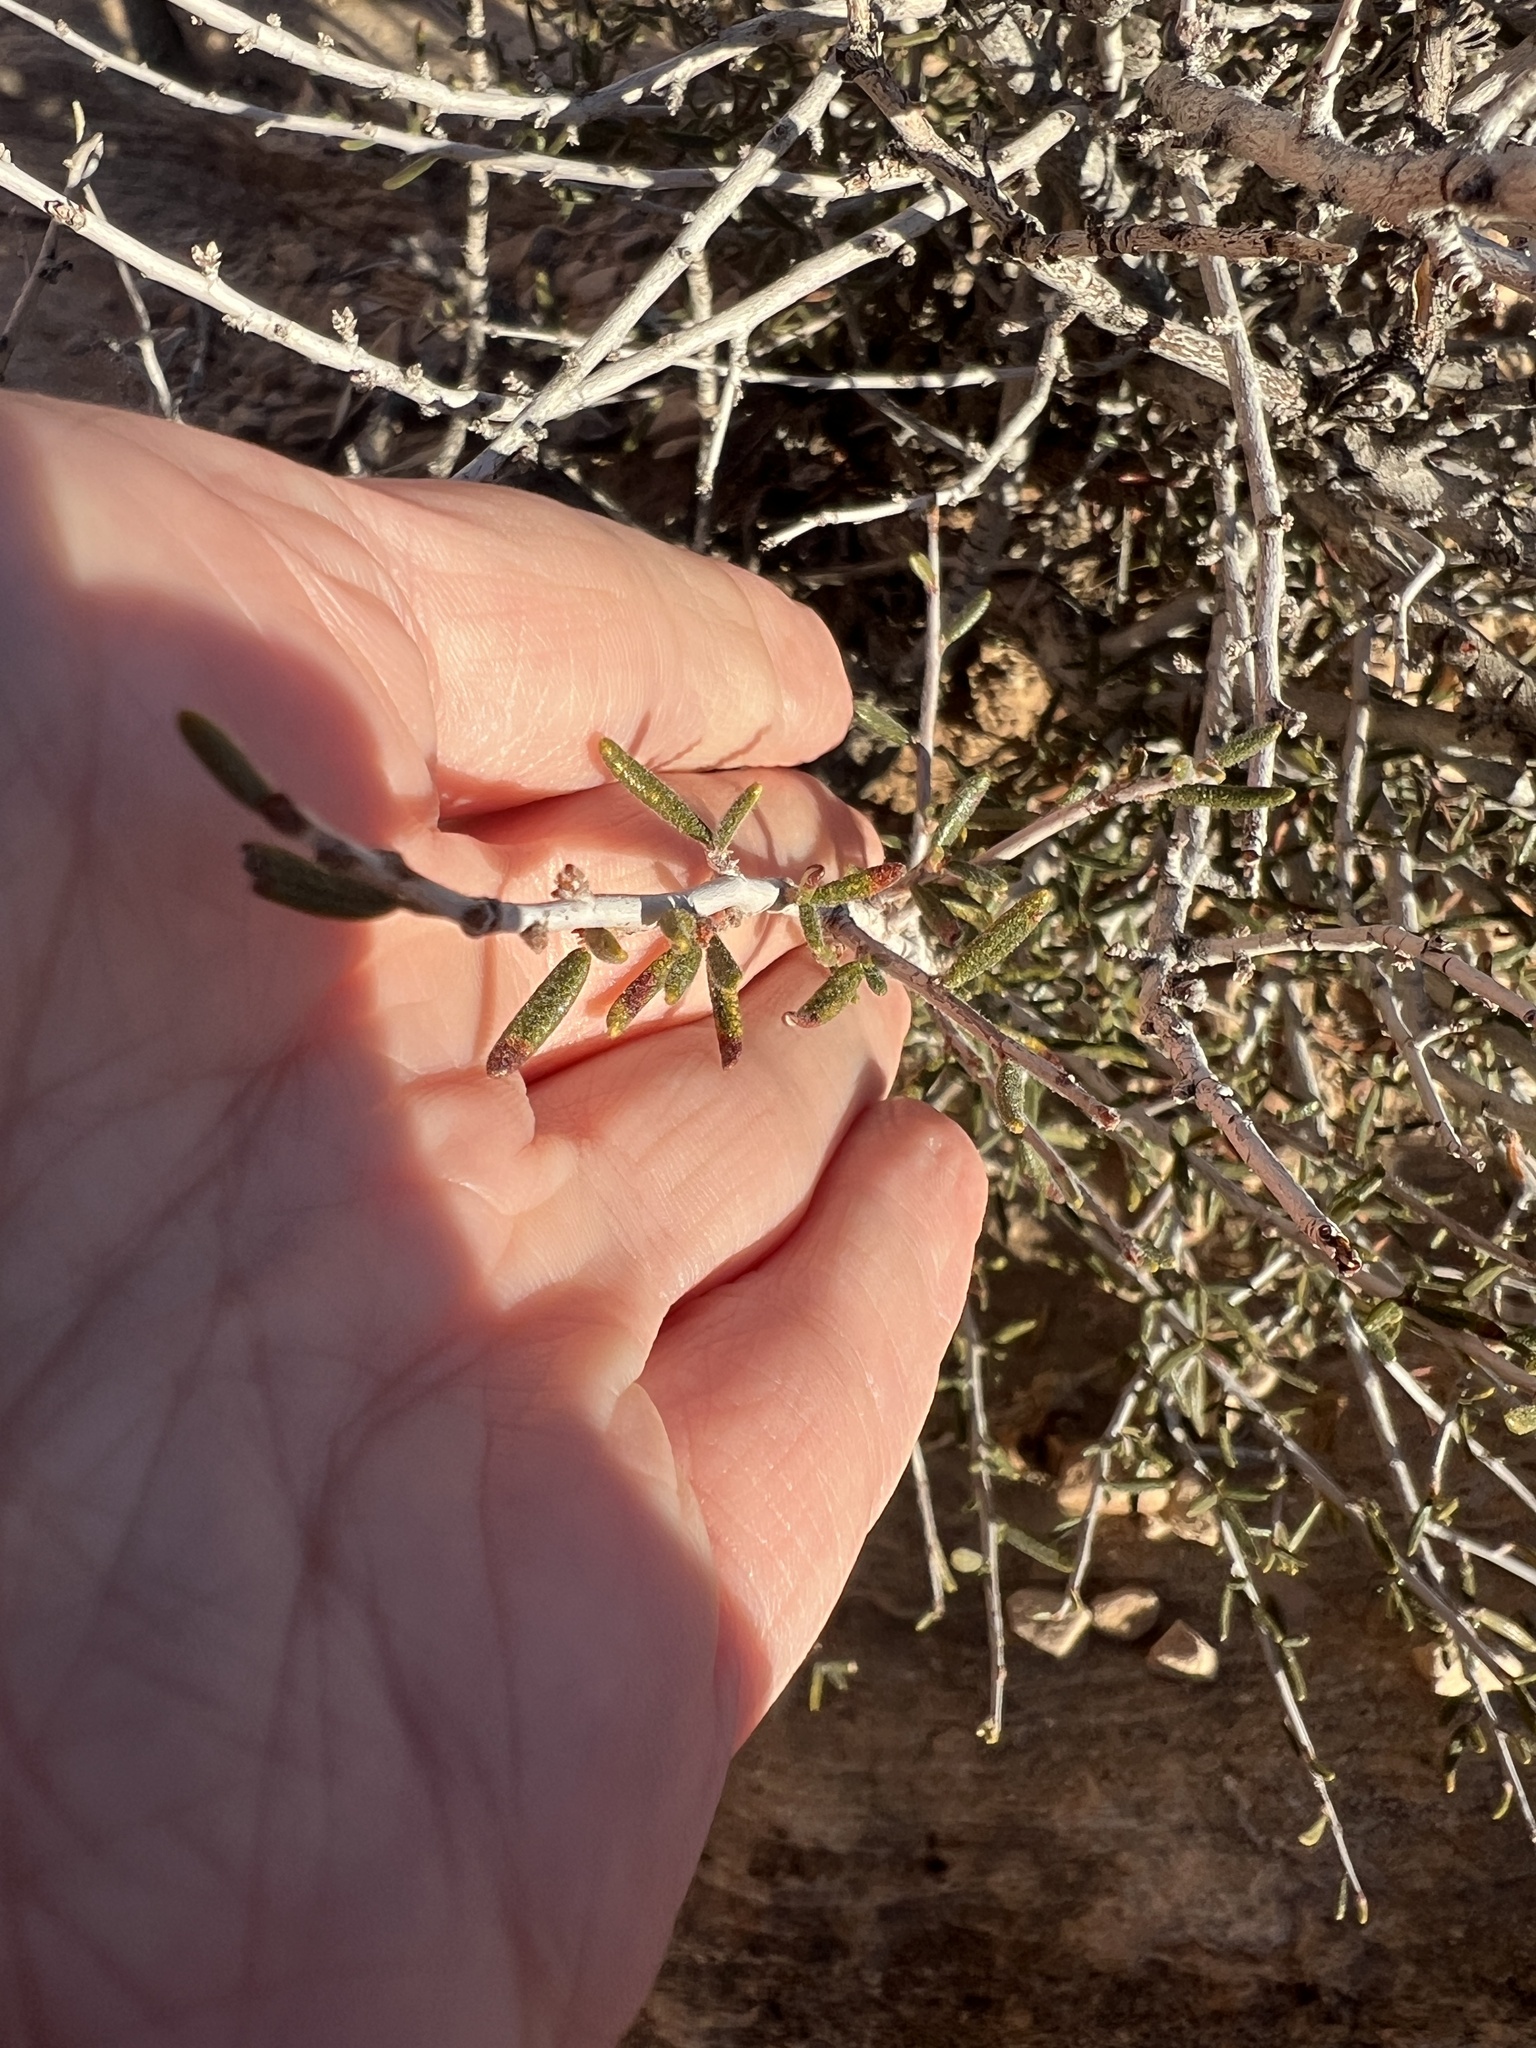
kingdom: Plantae
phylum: Tracheophyta
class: Magnoliopsida
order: Rosales
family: Rosaceae
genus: Cercocarpus
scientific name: Cercocarpus intricatus
